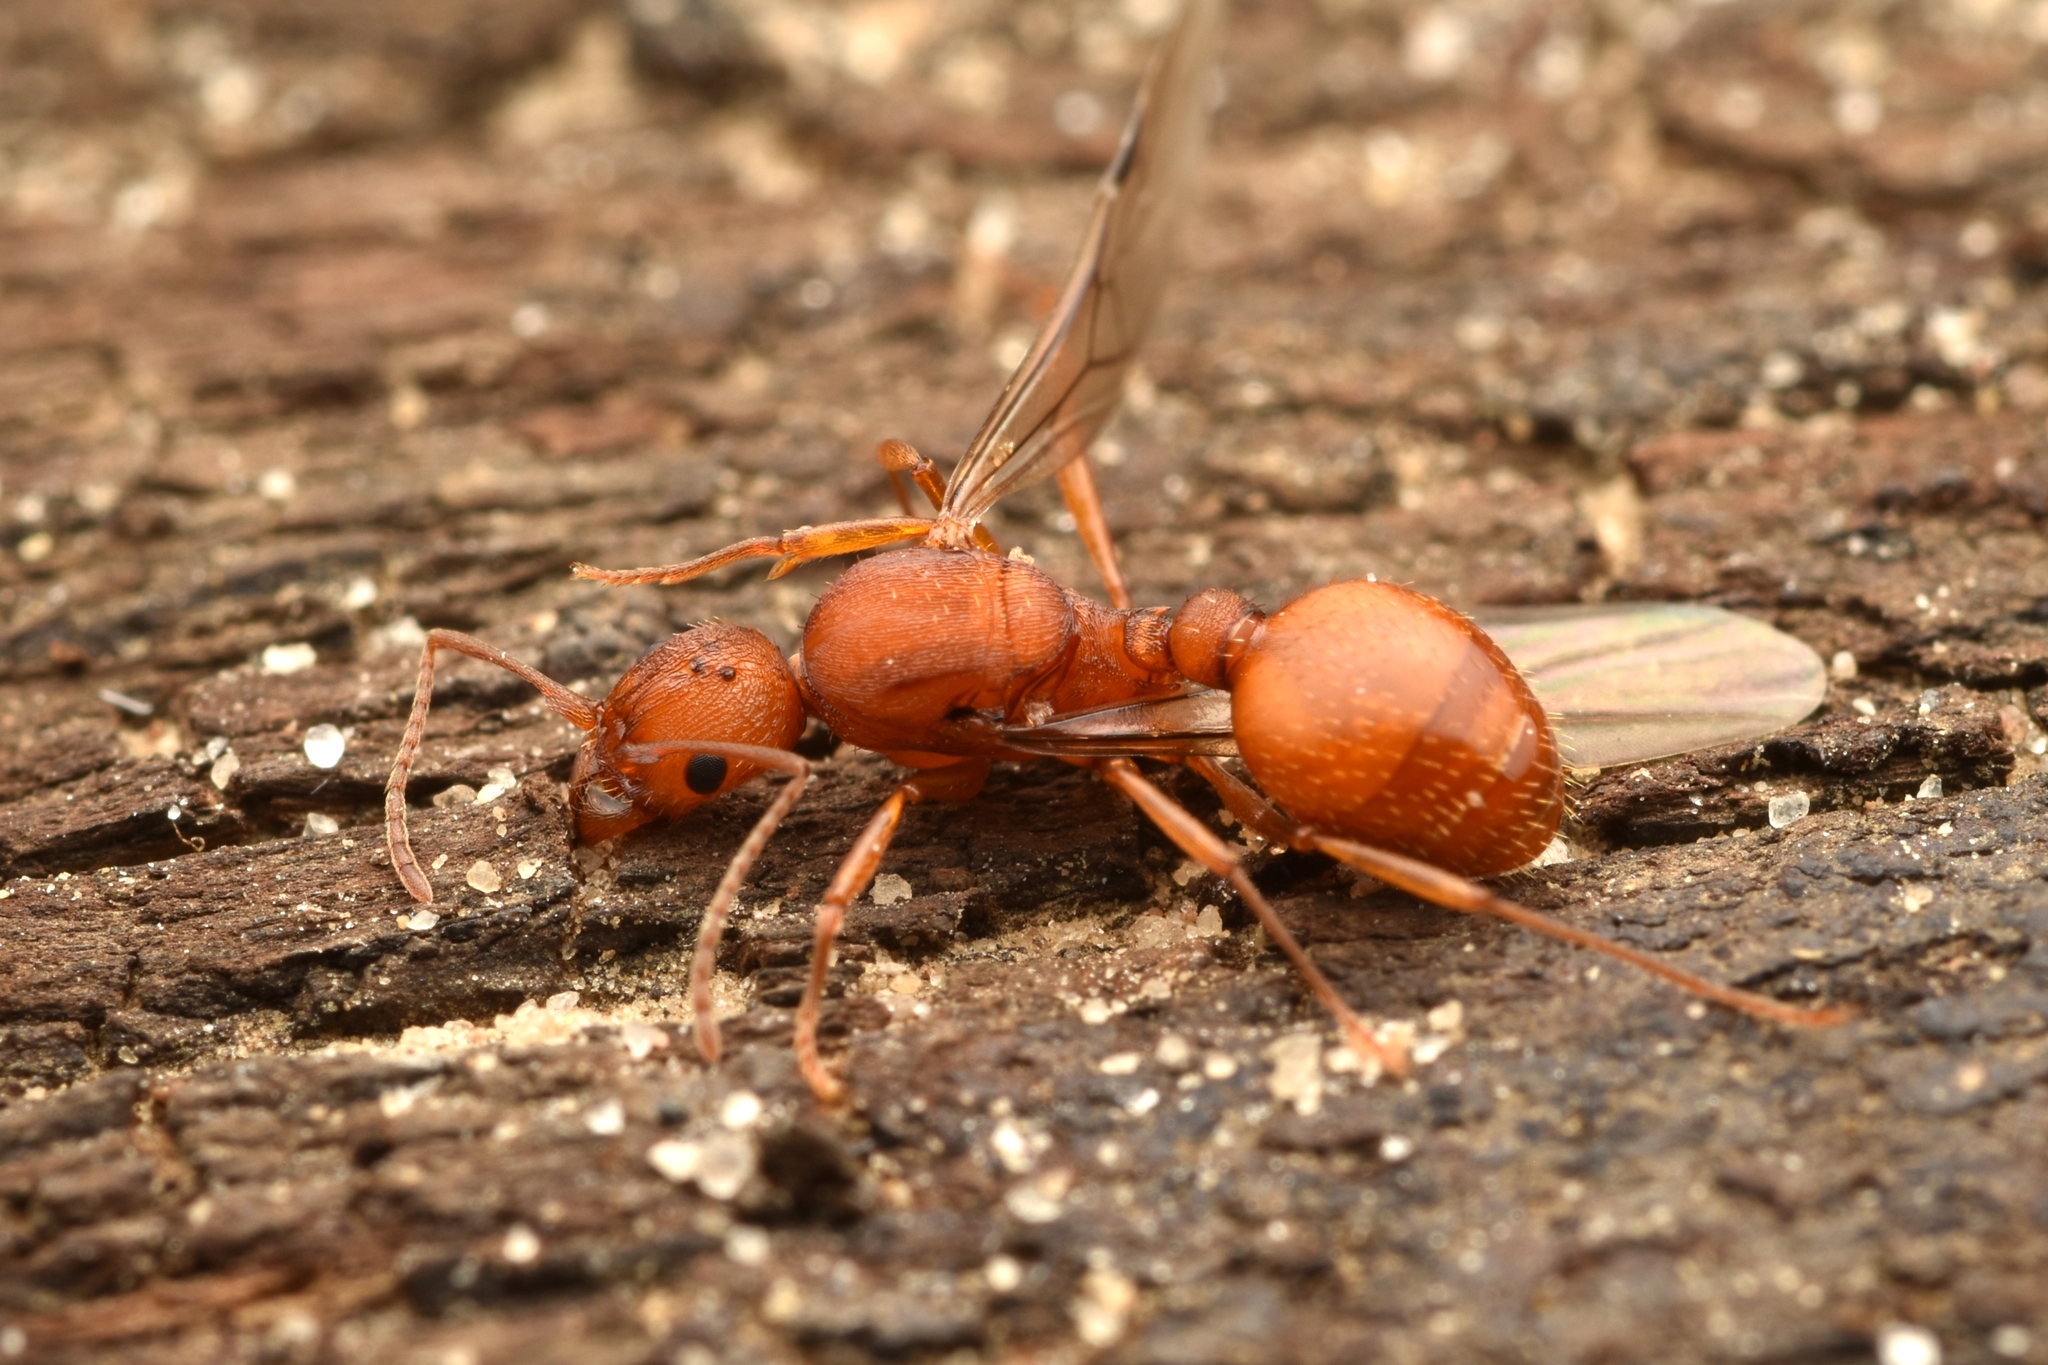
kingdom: Animalia
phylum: Arthropoda
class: Insecta
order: Hymenoptera
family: Formicidae
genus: Aphaenogaster
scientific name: Aphaenogaster treatae
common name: Treat's collared ant
